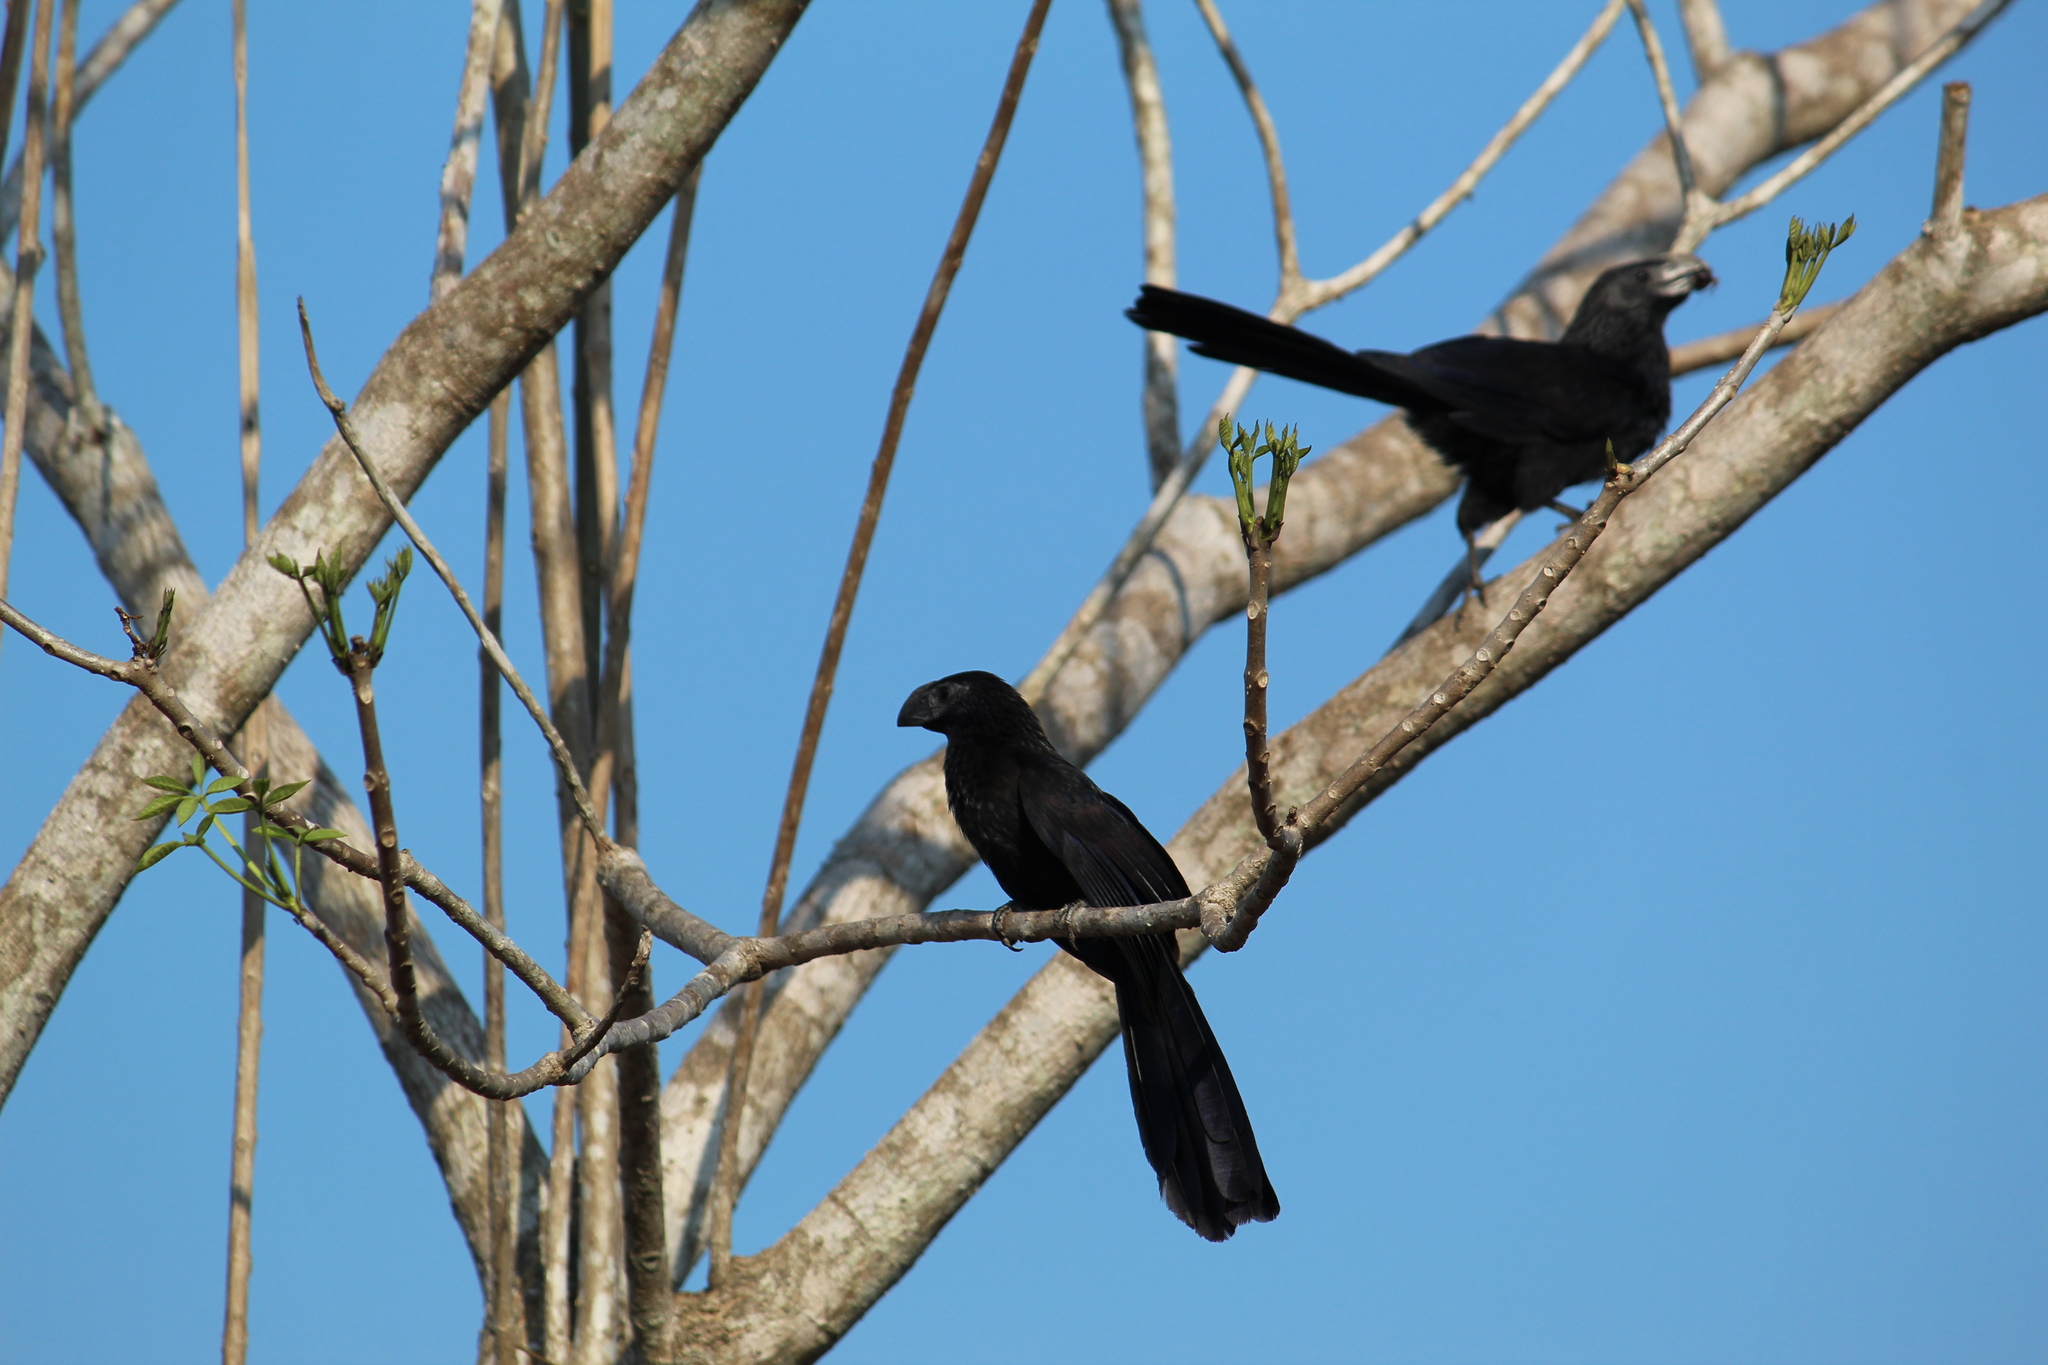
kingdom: Animalia
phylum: Chordata
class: Aves
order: Cuculiformes
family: Cuculidae
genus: Crotophaga
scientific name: Crotophaga sulcirostris
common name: Groove-billed ani
